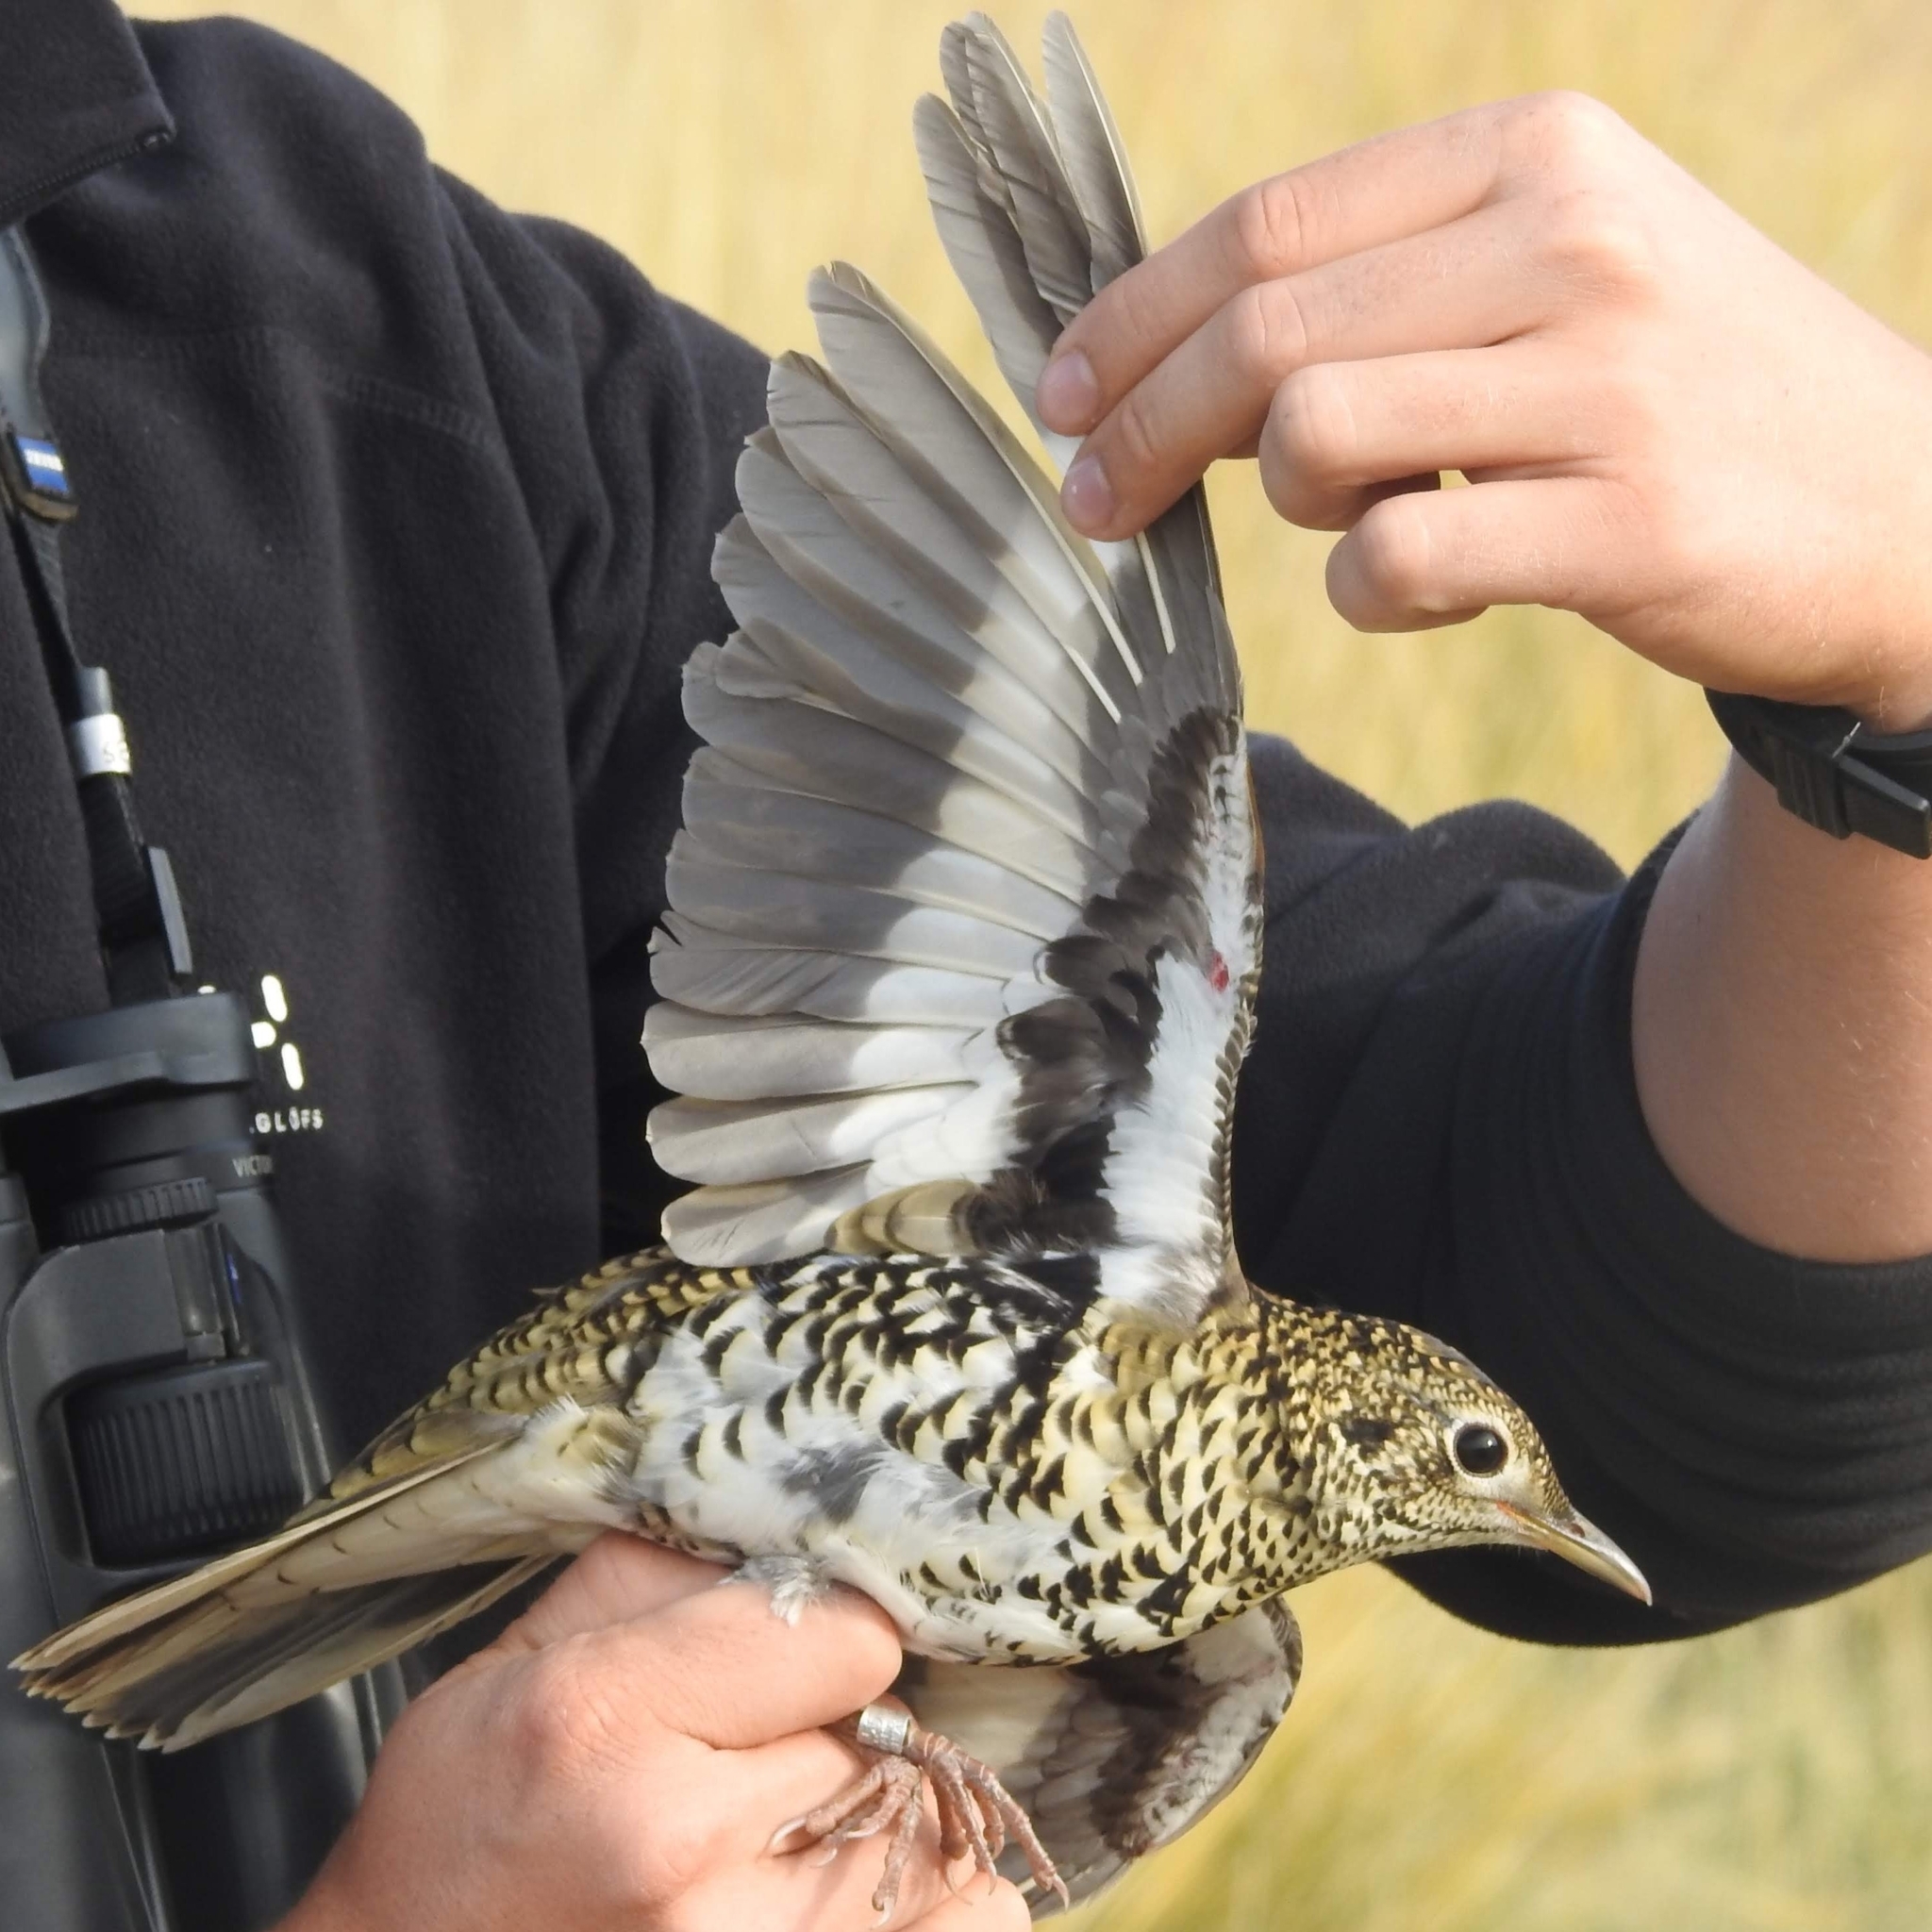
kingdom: Animalia
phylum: Chordata
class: Aves
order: Passeriformes
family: Turdidae
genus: Zoothera
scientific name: Zoothera aurea
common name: White's thrush
